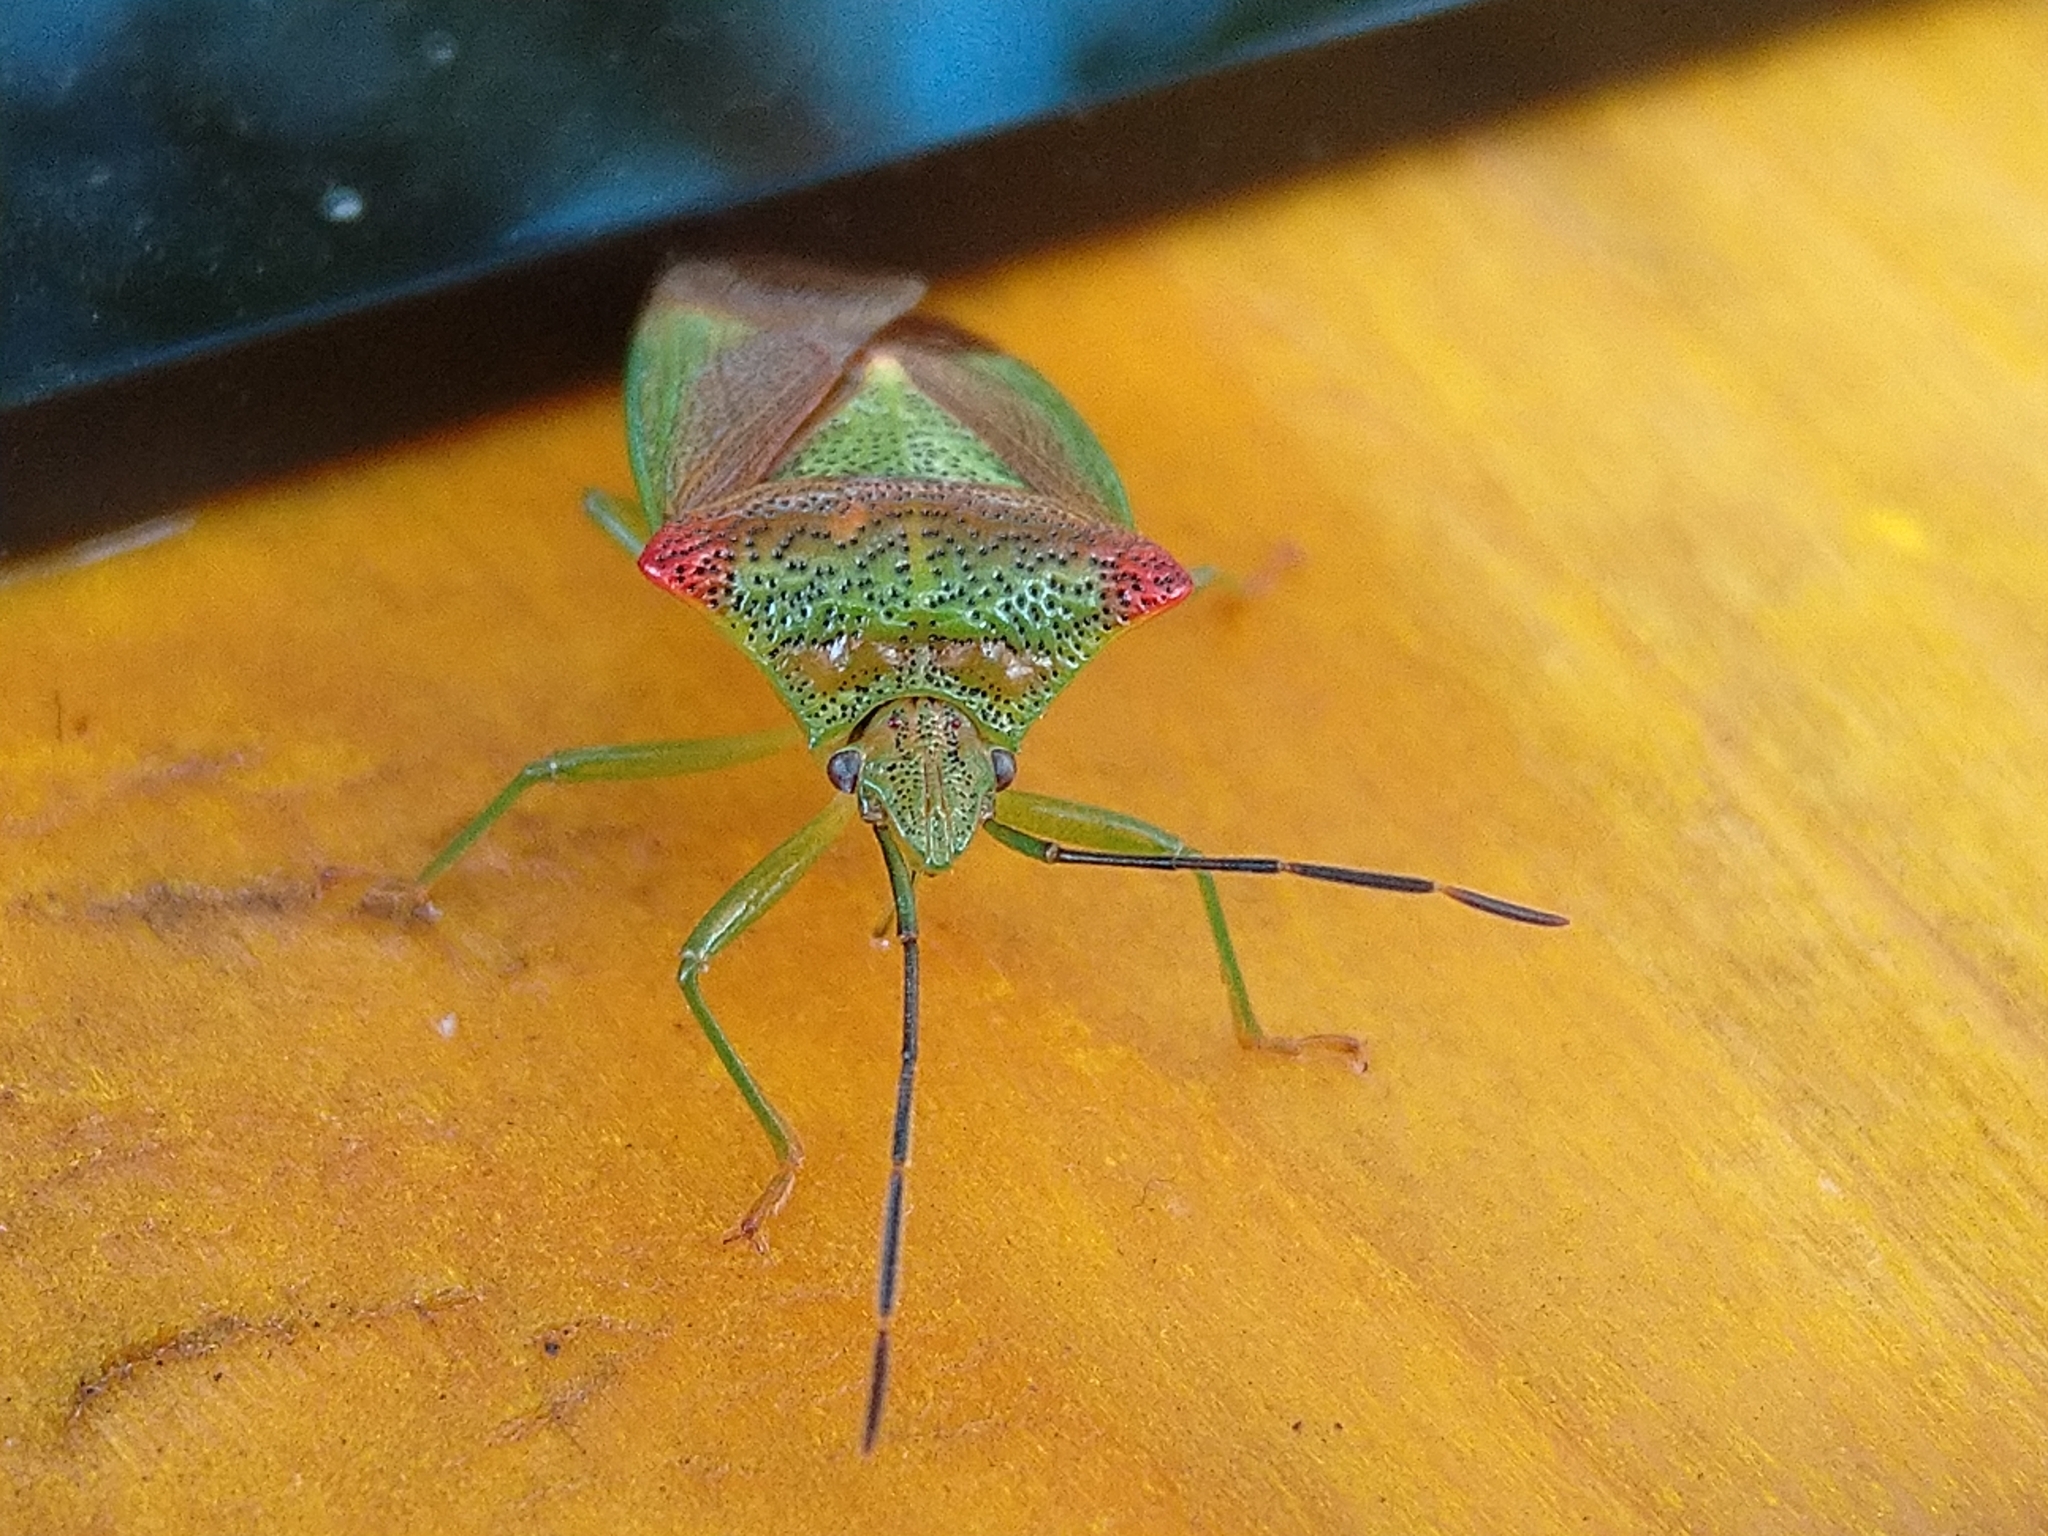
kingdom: Animalia
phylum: Arthropoda
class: Insecta
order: Hemiptera
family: Acanthosomatidae
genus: Acanthosoma
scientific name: Acanthosoma haemorrhoidale
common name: Hawthorn shieldbug
